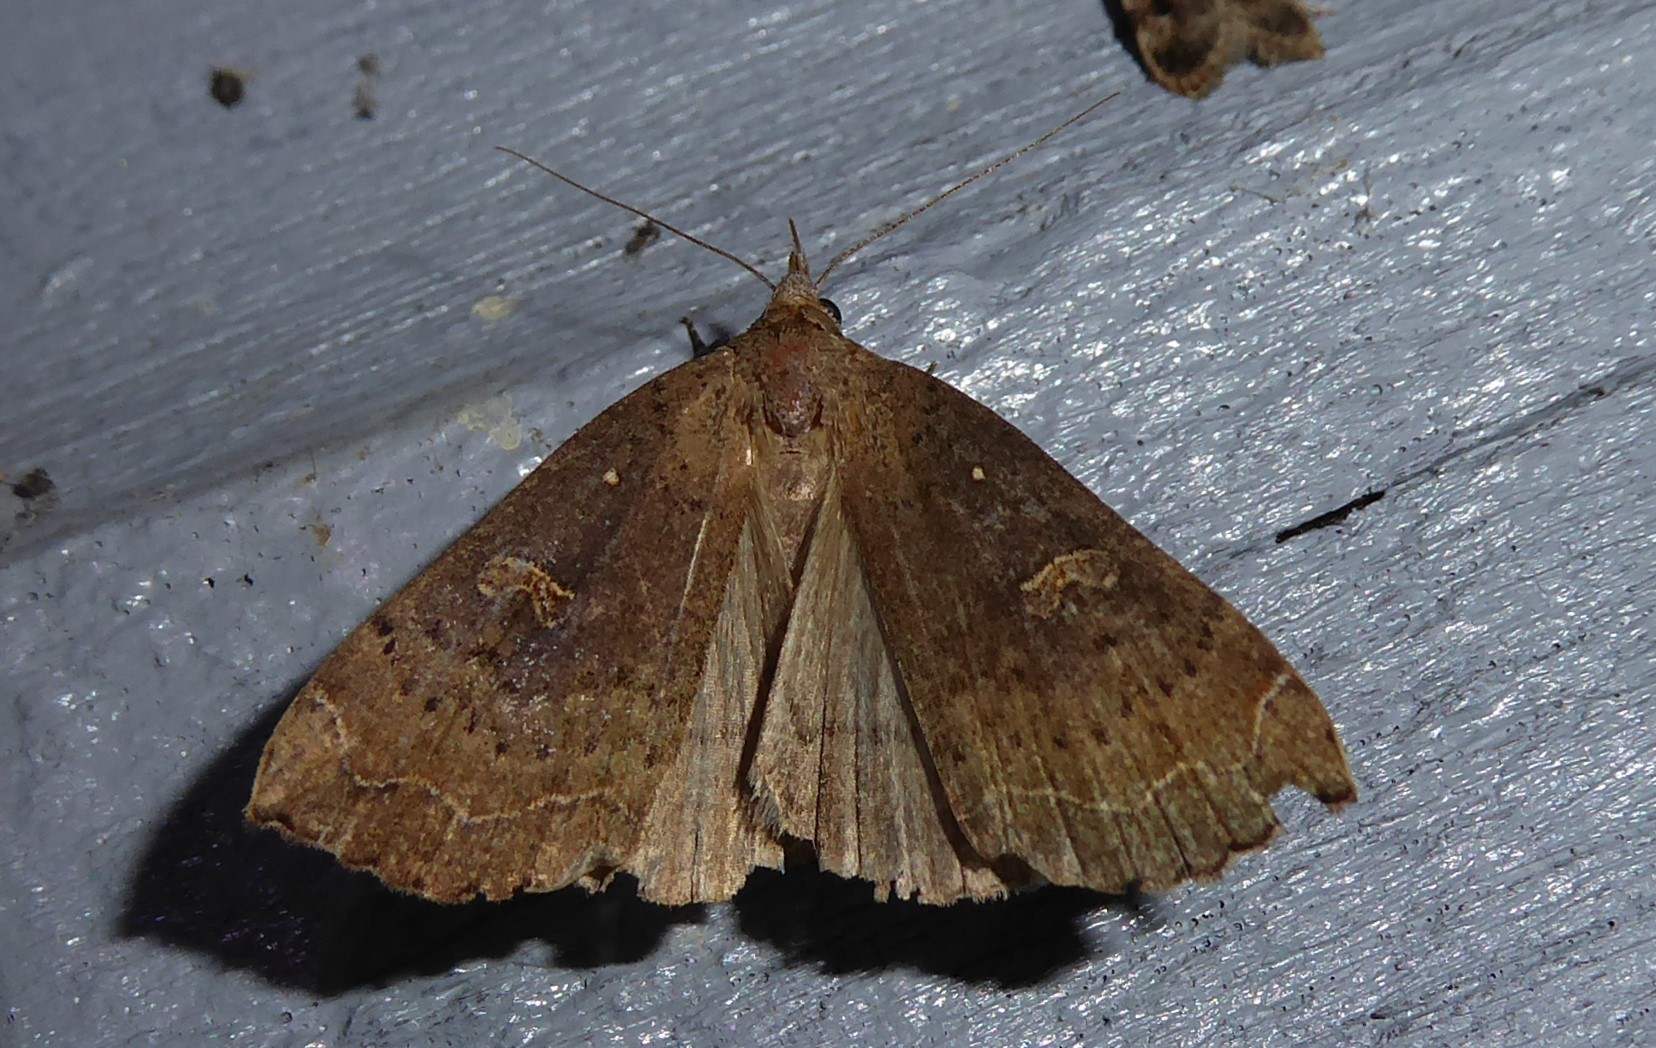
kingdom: Animalia
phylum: Arthropoda
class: Insecta
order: Lepidoptera
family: Erebidae
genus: Rhapsa
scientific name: Rhapsa scotosialis
